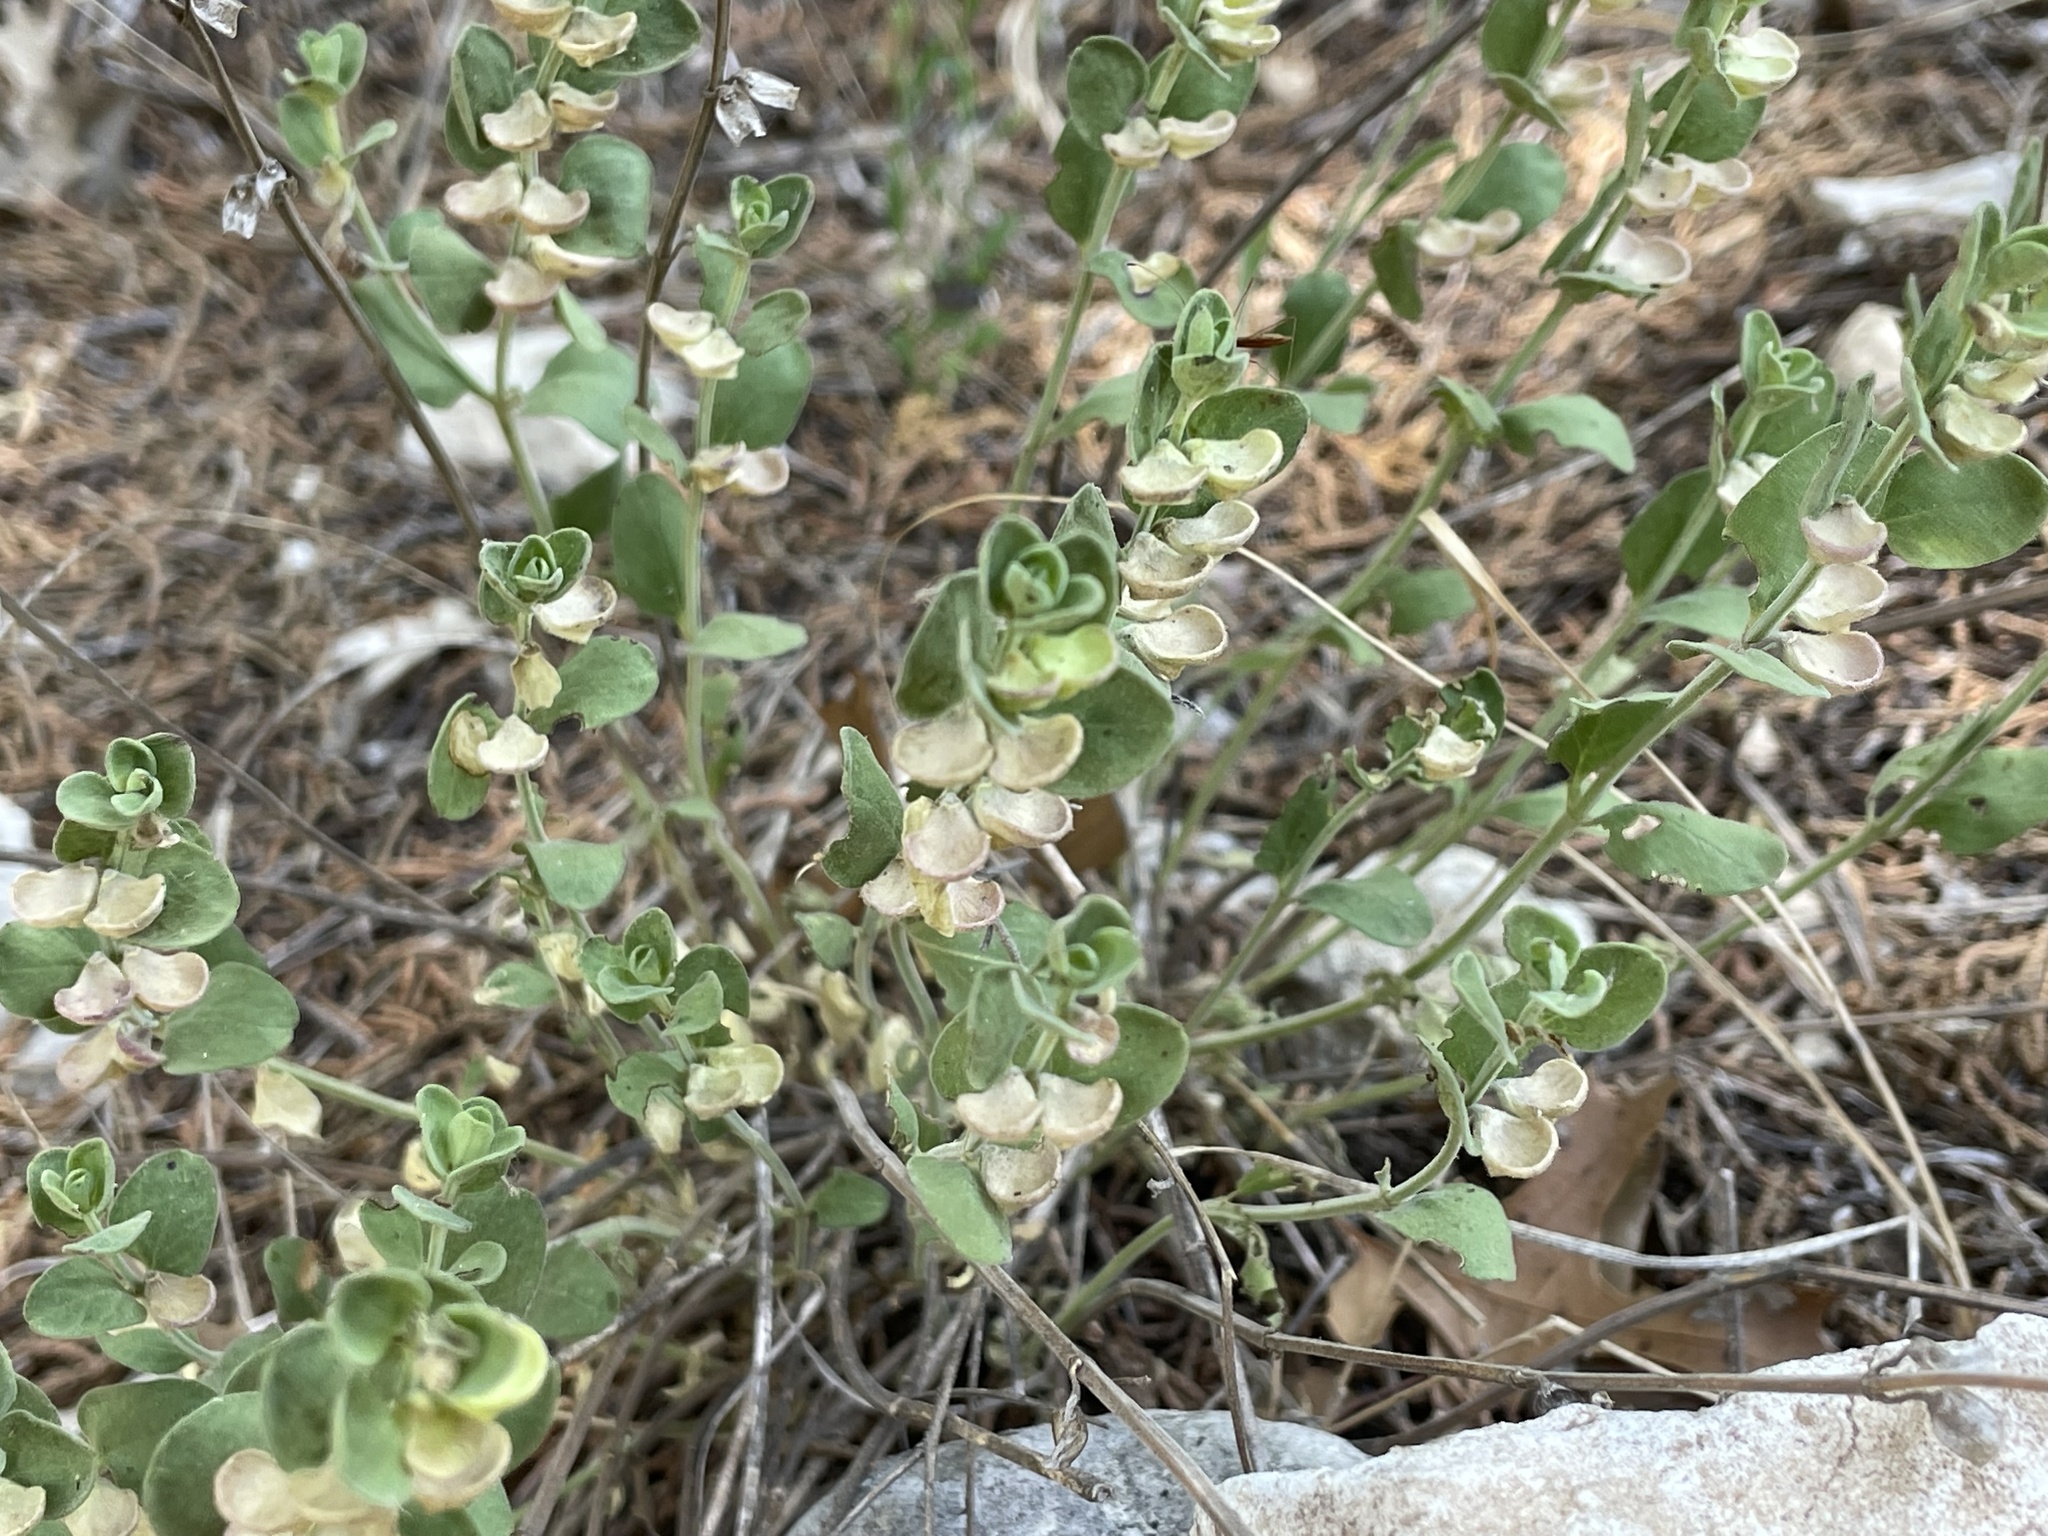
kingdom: Plantae
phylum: Tracheophyta
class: Magnoliopsida
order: Lamiales
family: Lamiaceae
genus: Scutellaria
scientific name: Scutellaria wrightii
